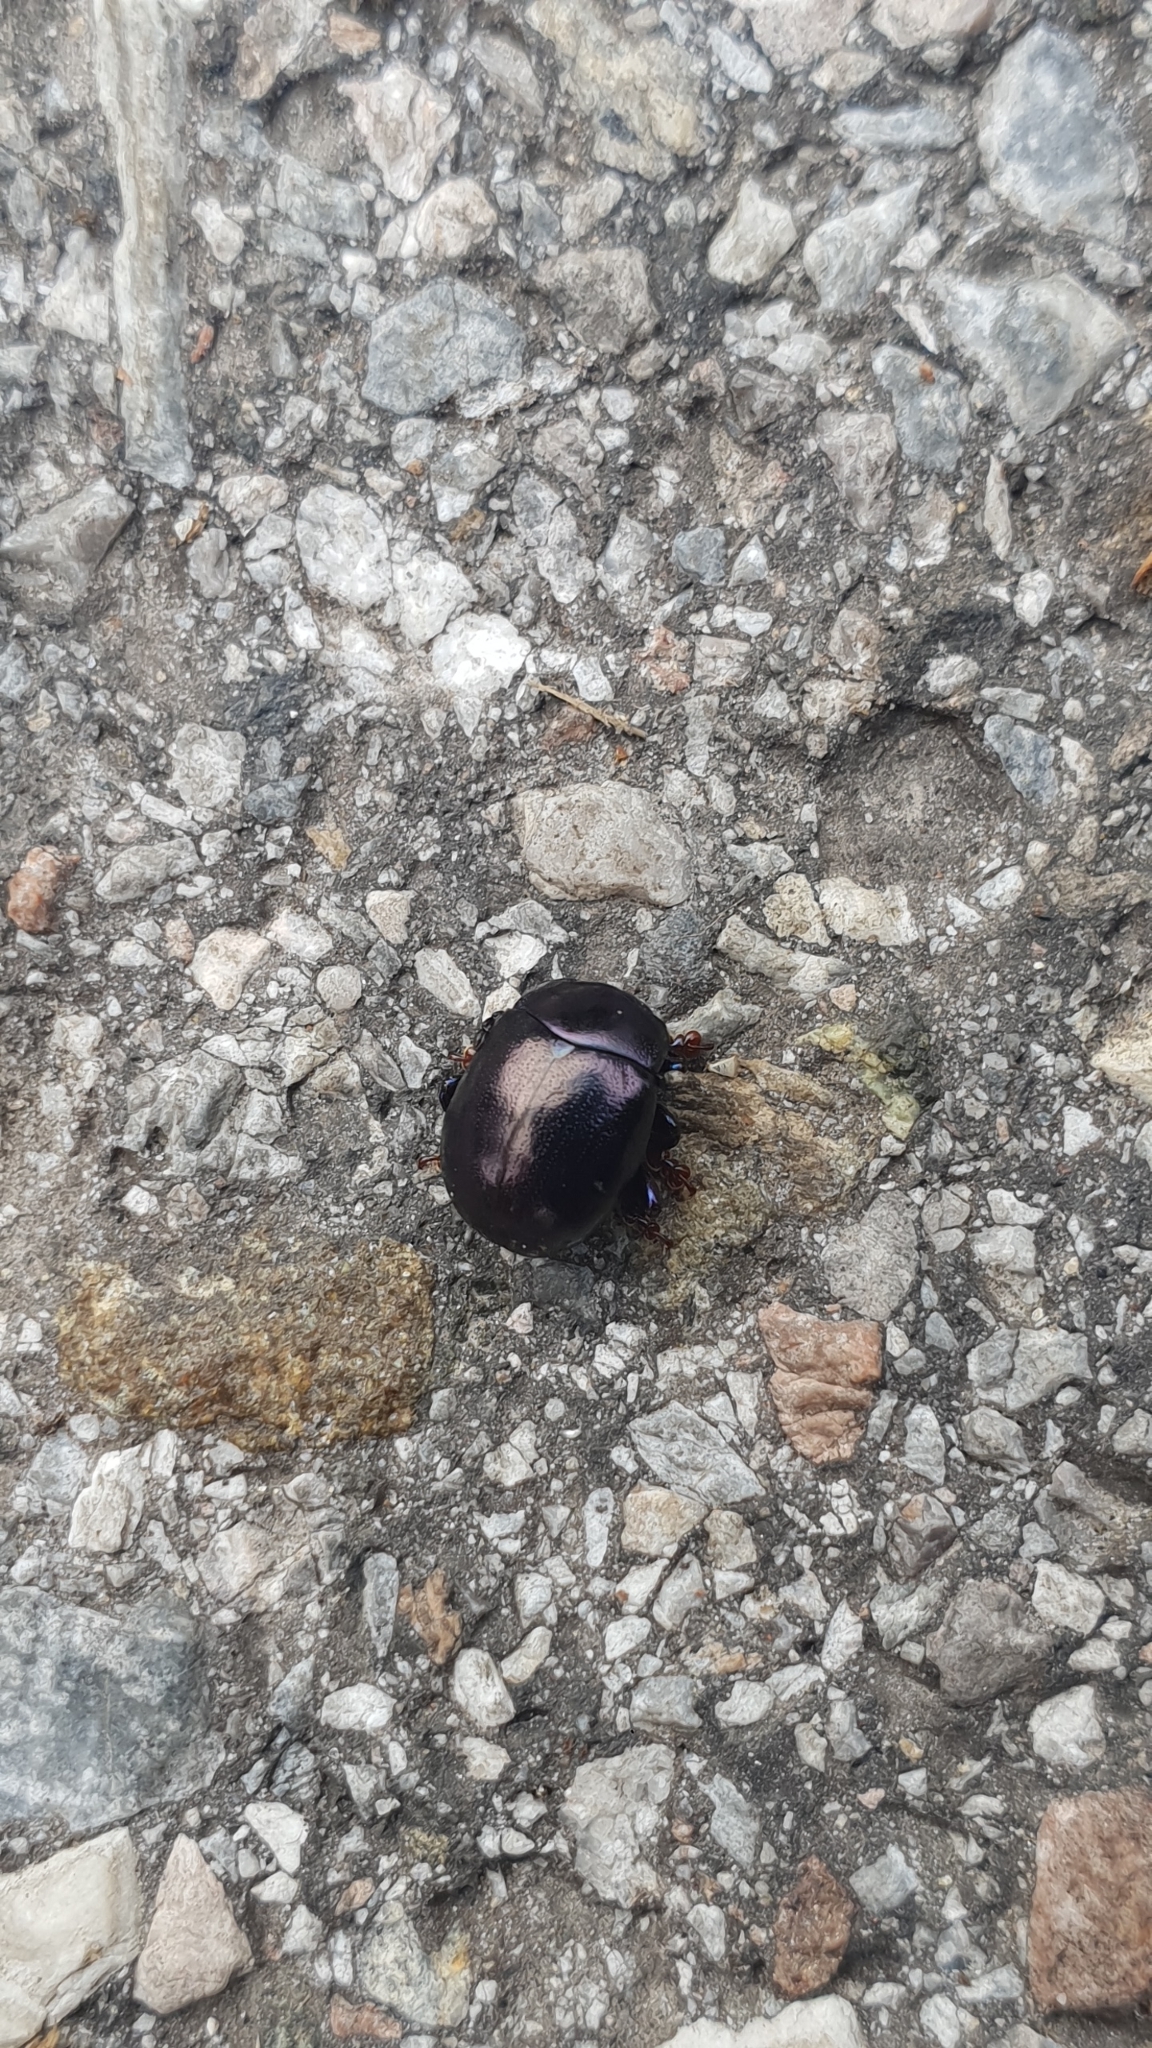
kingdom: Animalia
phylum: Arthropoda
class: Insecta
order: Coleoptera
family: Chrysomelidae
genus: Chrysolina
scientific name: Chrysolina sturmi
